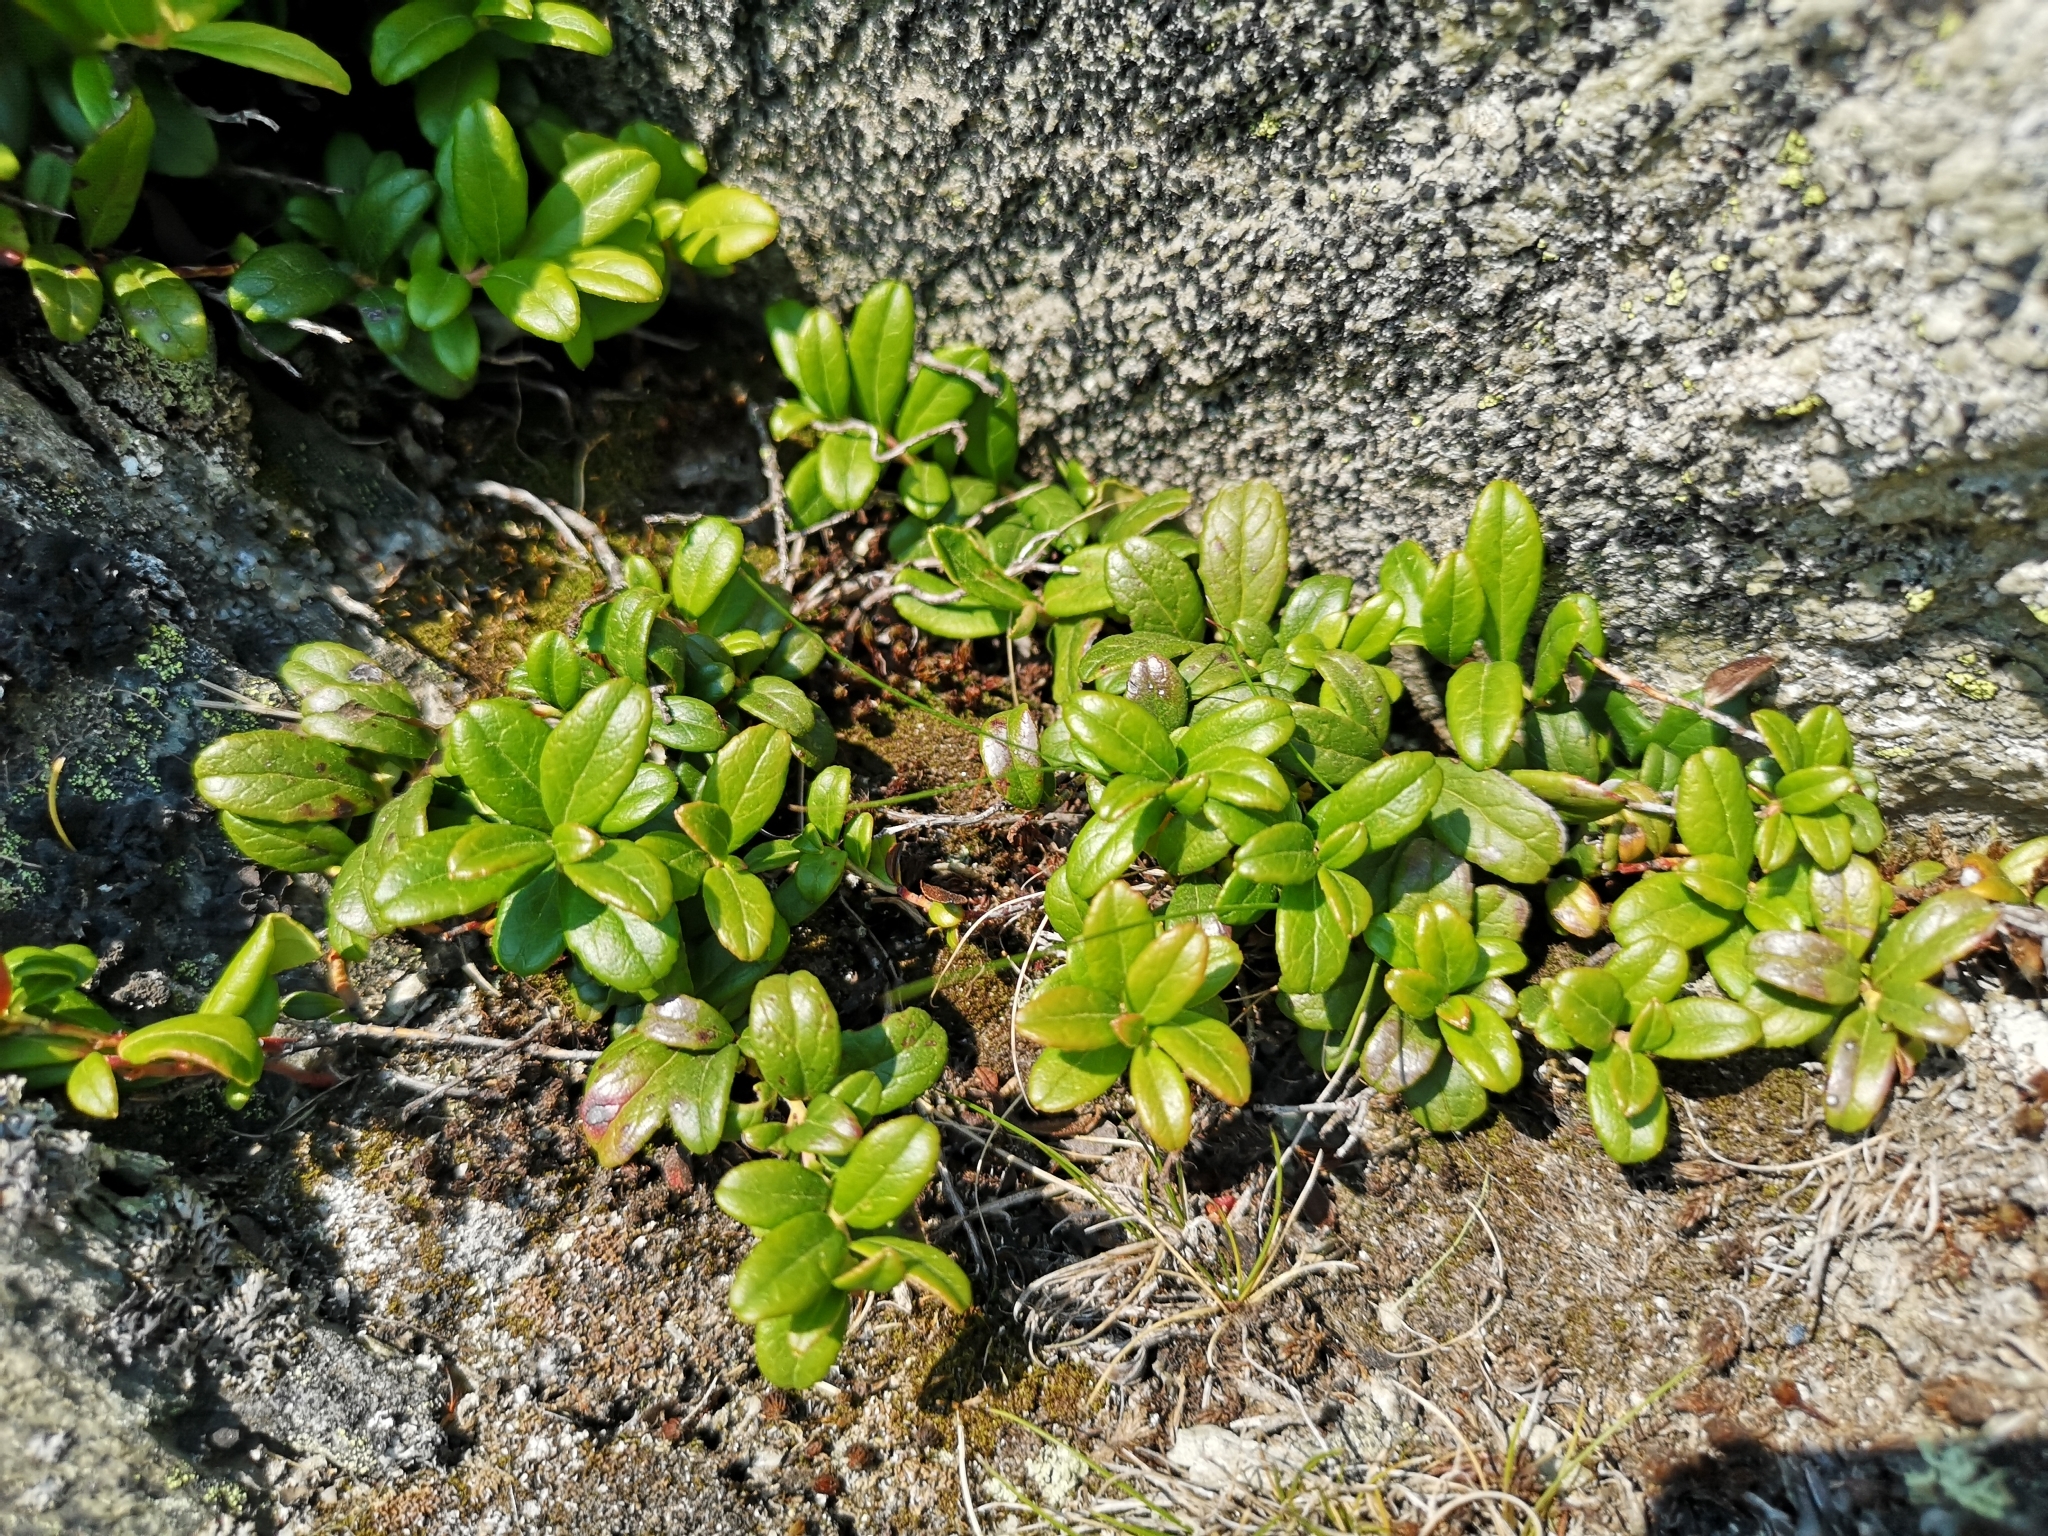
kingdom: Plantae
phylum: Tracheophyta
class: Magnoliopsida
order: Ericales
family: Ericaceae
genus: Vaccinium
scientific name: Vaccinium vitis-idaea
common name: Cowberry
